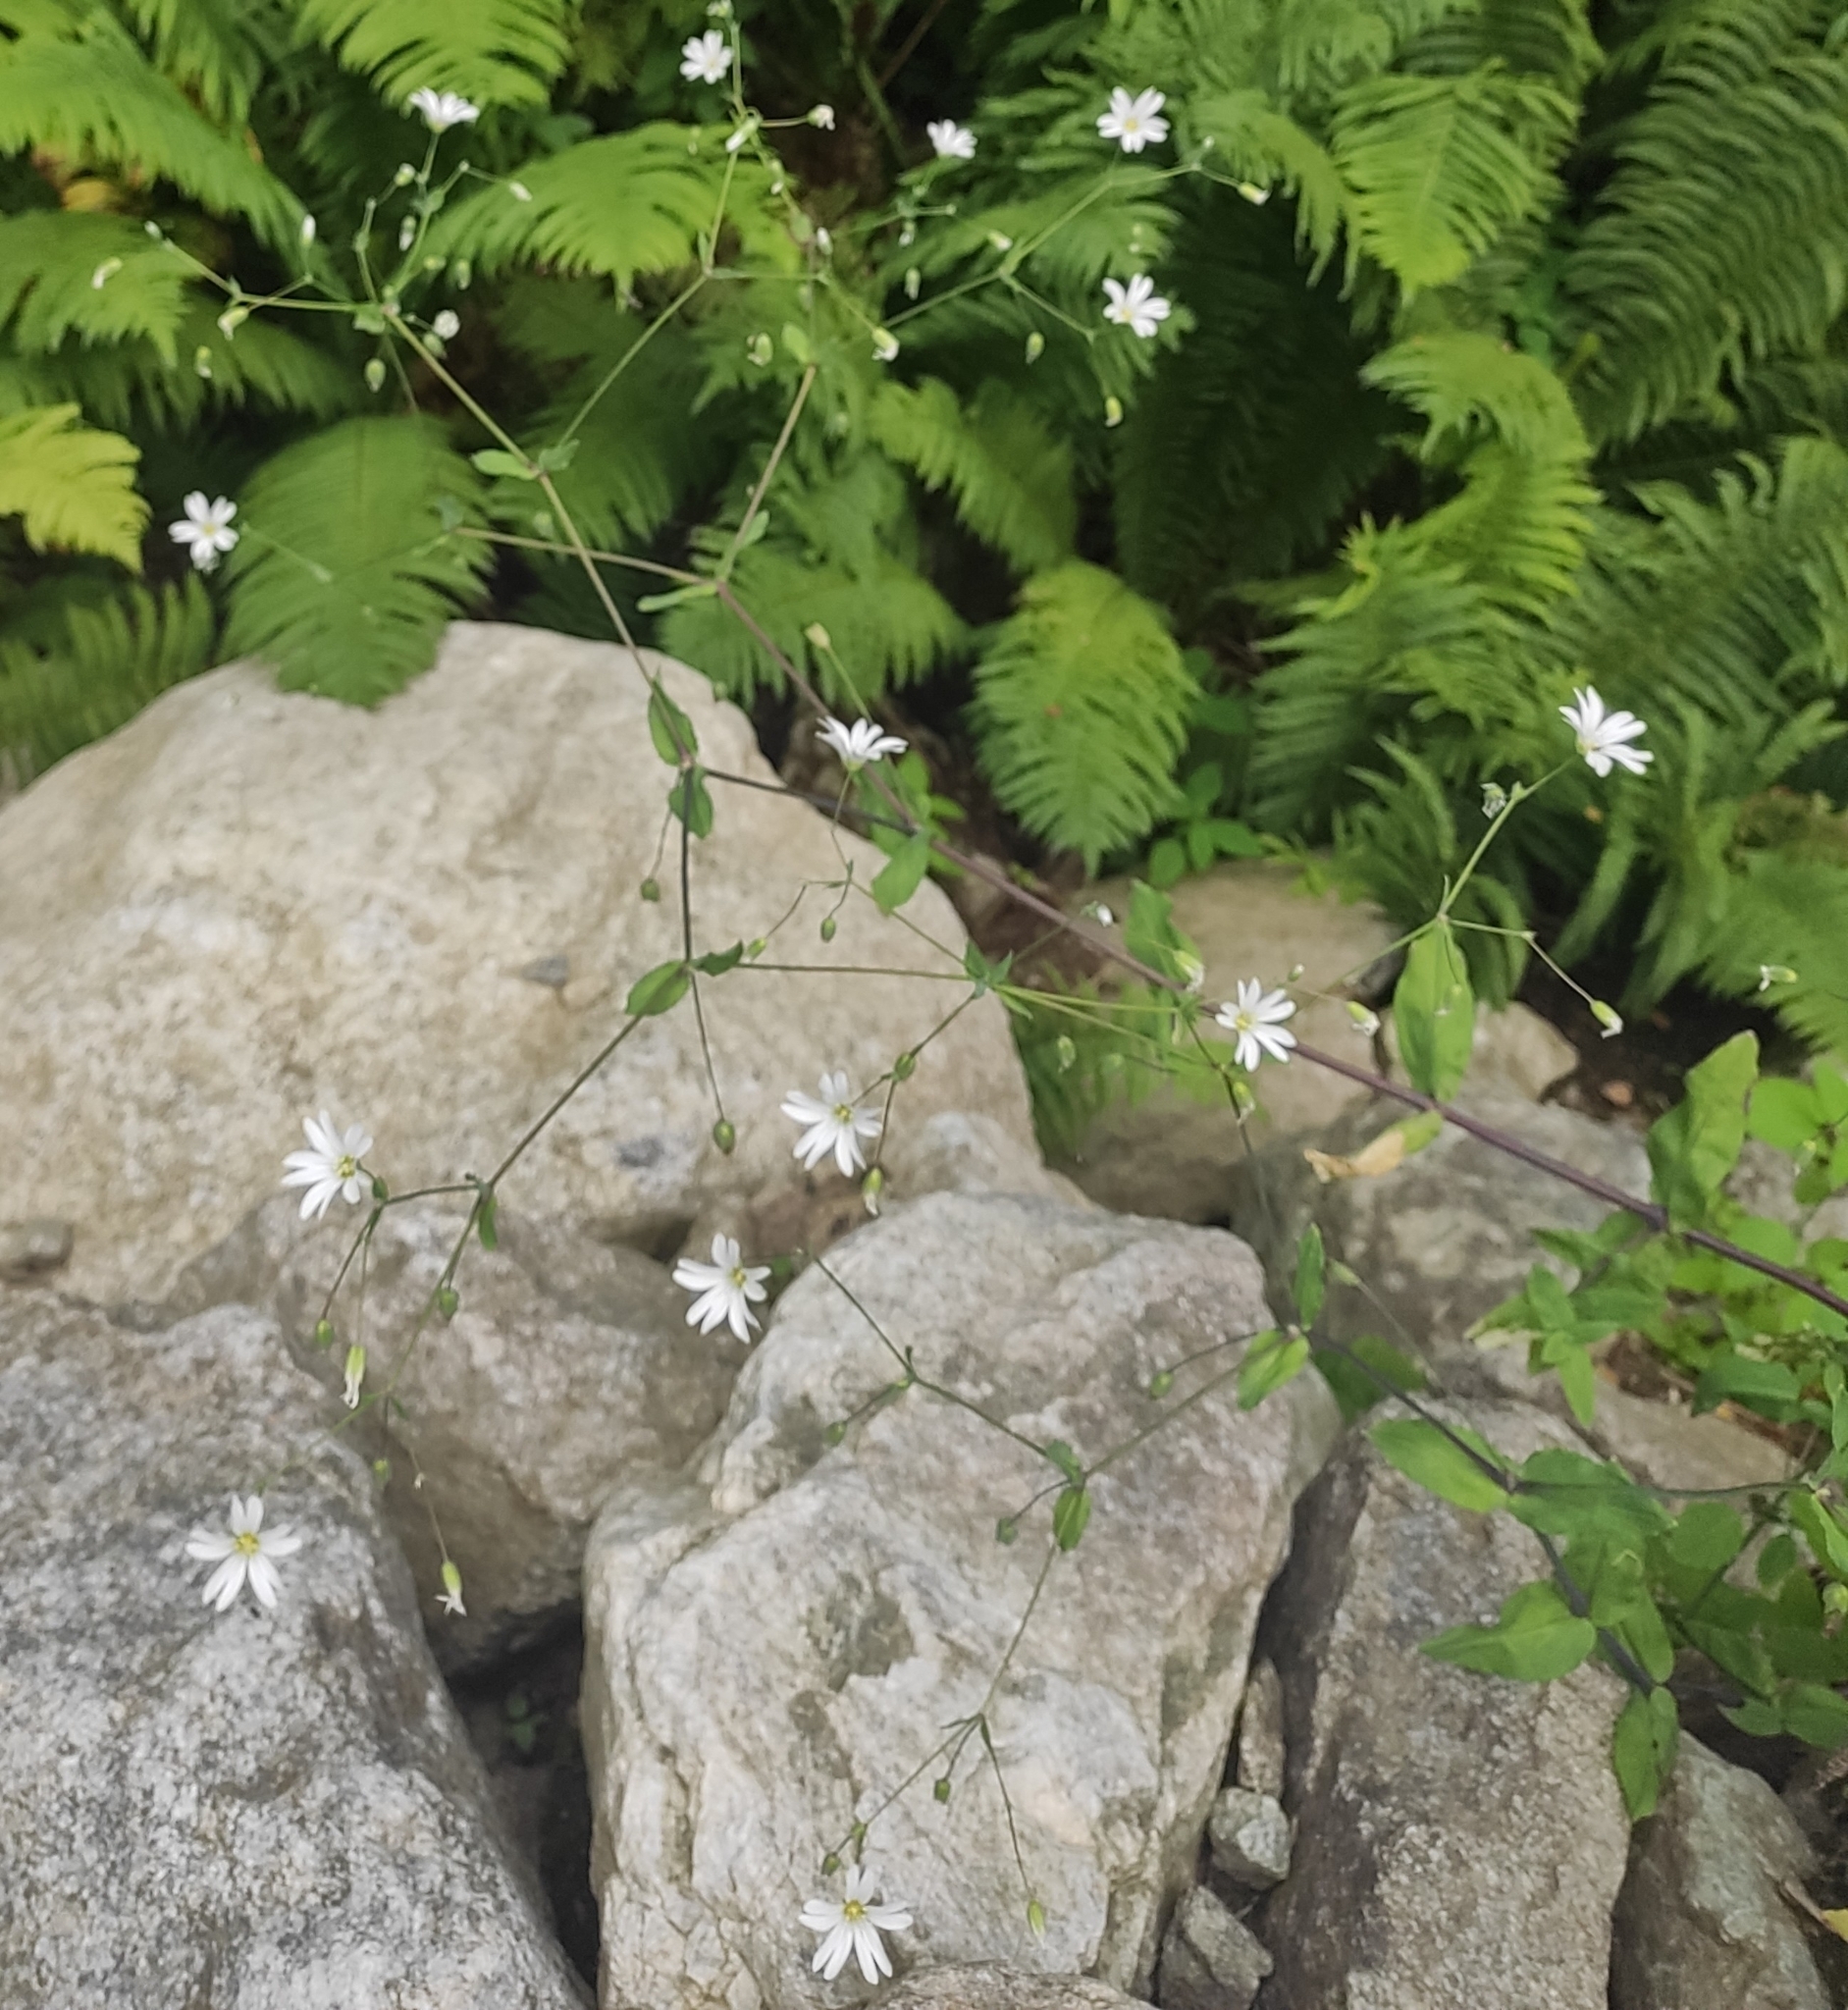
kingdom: Plantae
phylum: Tracheophyta
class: Magnoliopsida
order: Caryophyllales
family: Caryophyllaceae
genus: Cerastium
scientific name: Cerastium davuricum
